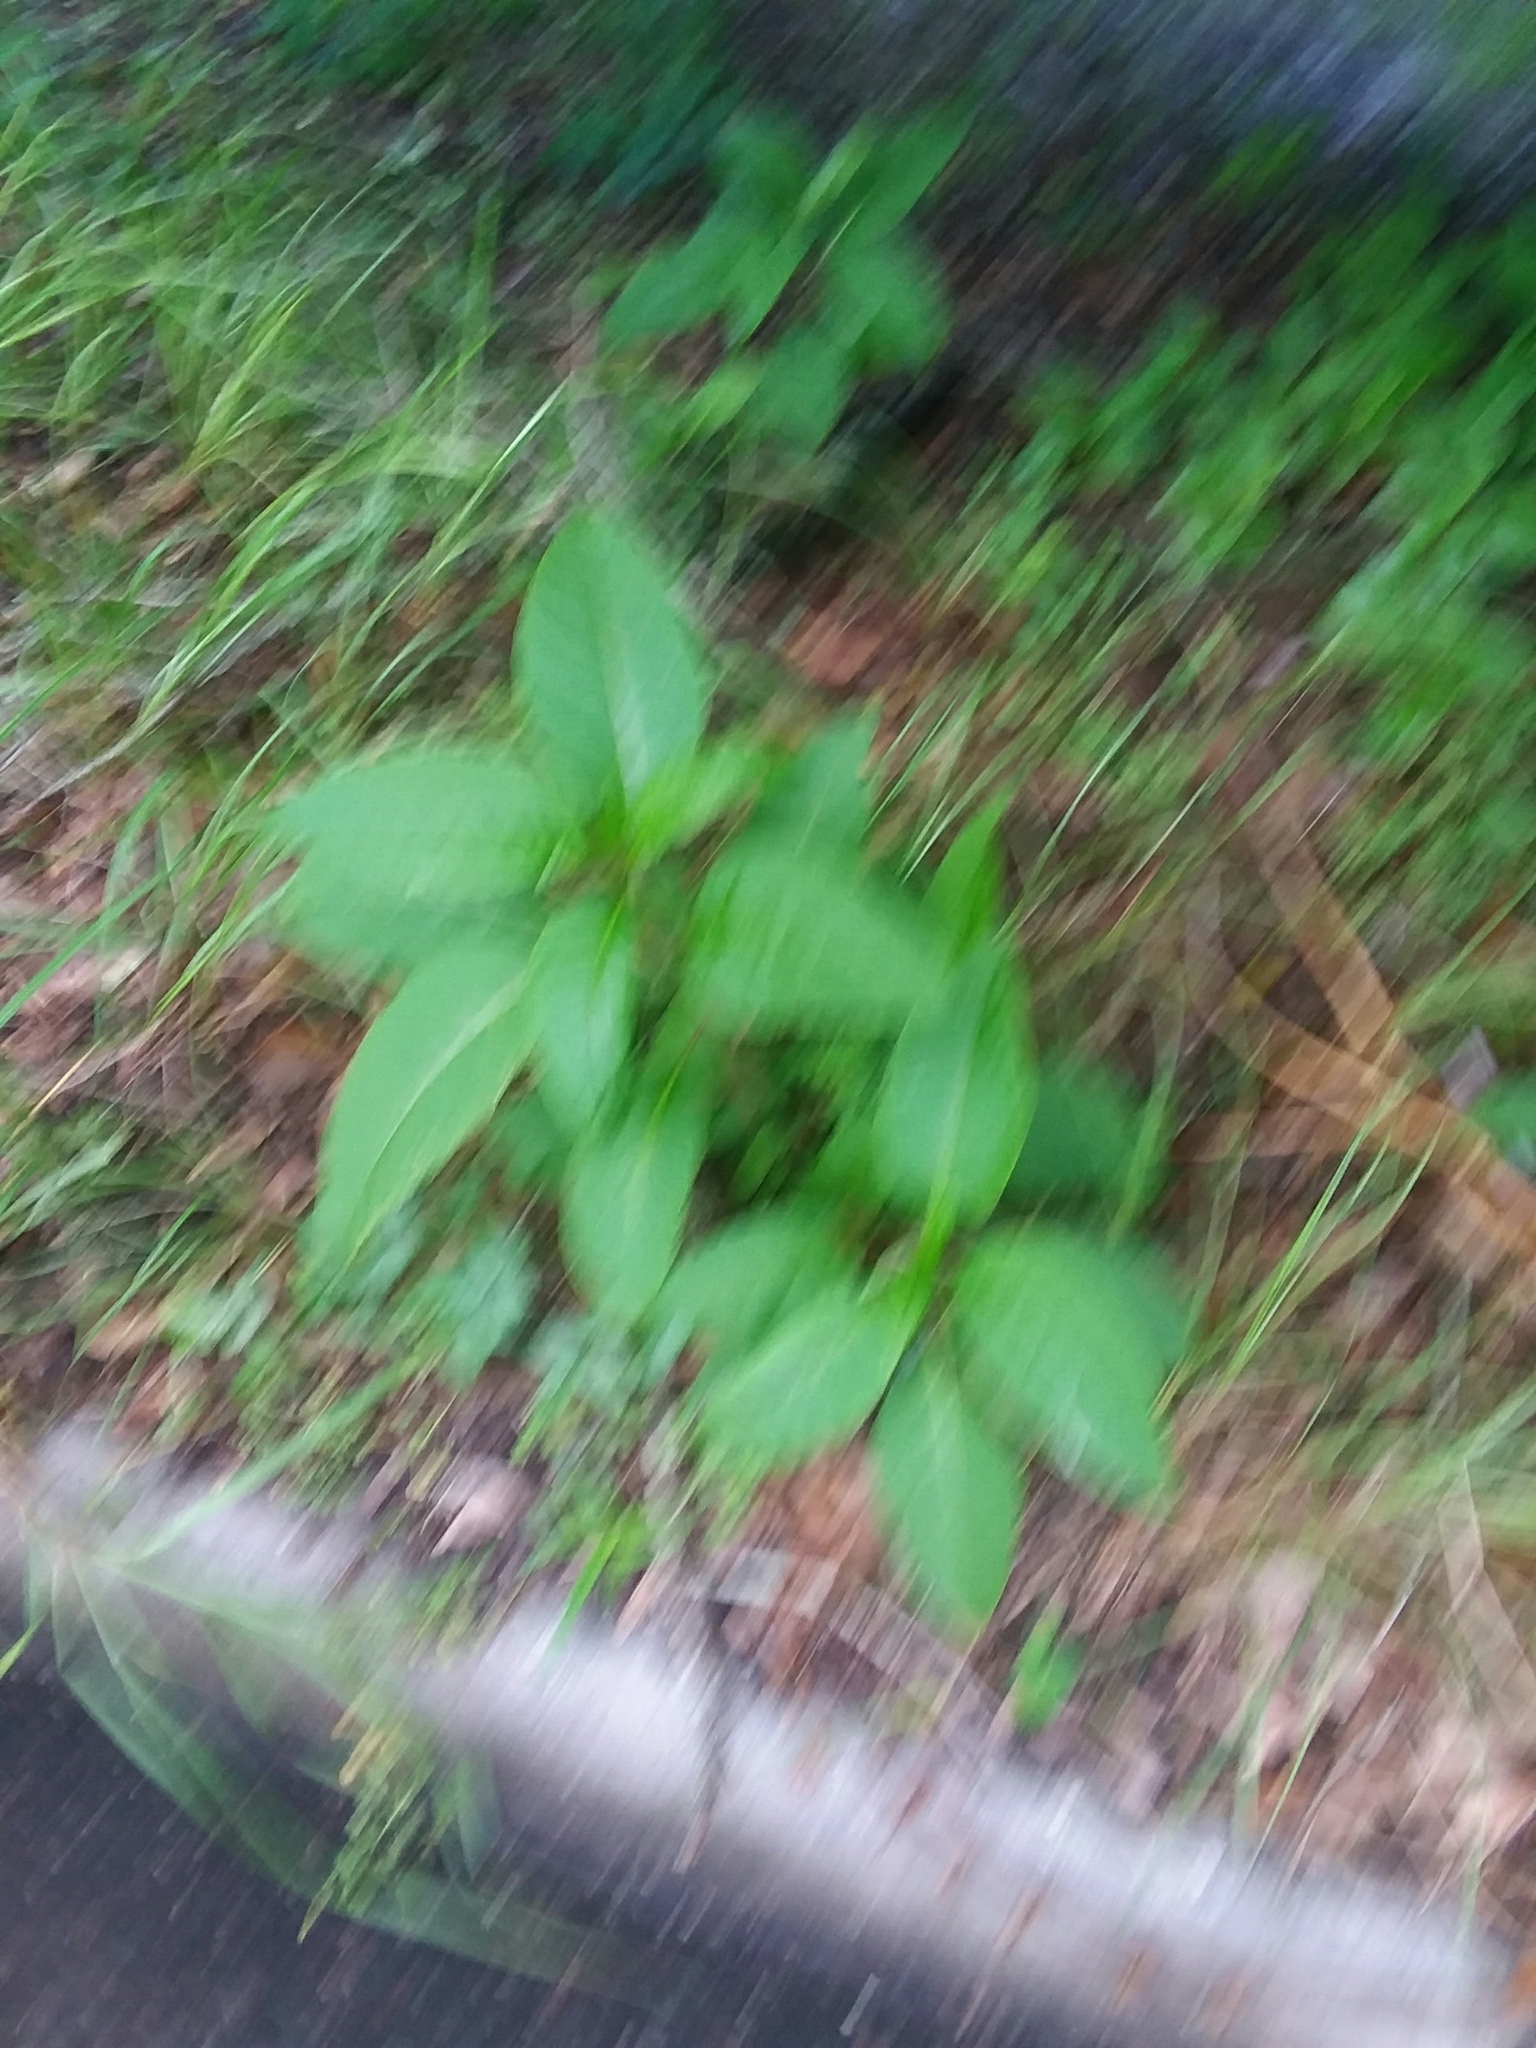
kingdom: Plantae
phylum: Tracheophyta
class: Magnoliopsida
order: Caryophyllales
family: Phytolaccaceae
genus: Phytolacca
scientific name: Phytolacca americana
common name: American pokeweed
